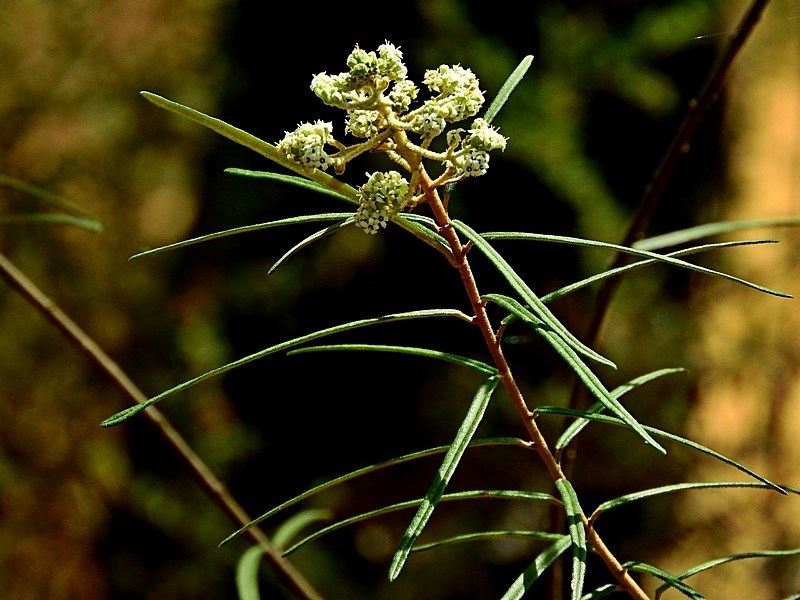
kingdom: Plantae
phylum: Tracheophyta
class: Magnoliopsida
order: Apiales
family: Araliaceae
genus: Astrotricha
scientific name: Astrotricha asperifolia
